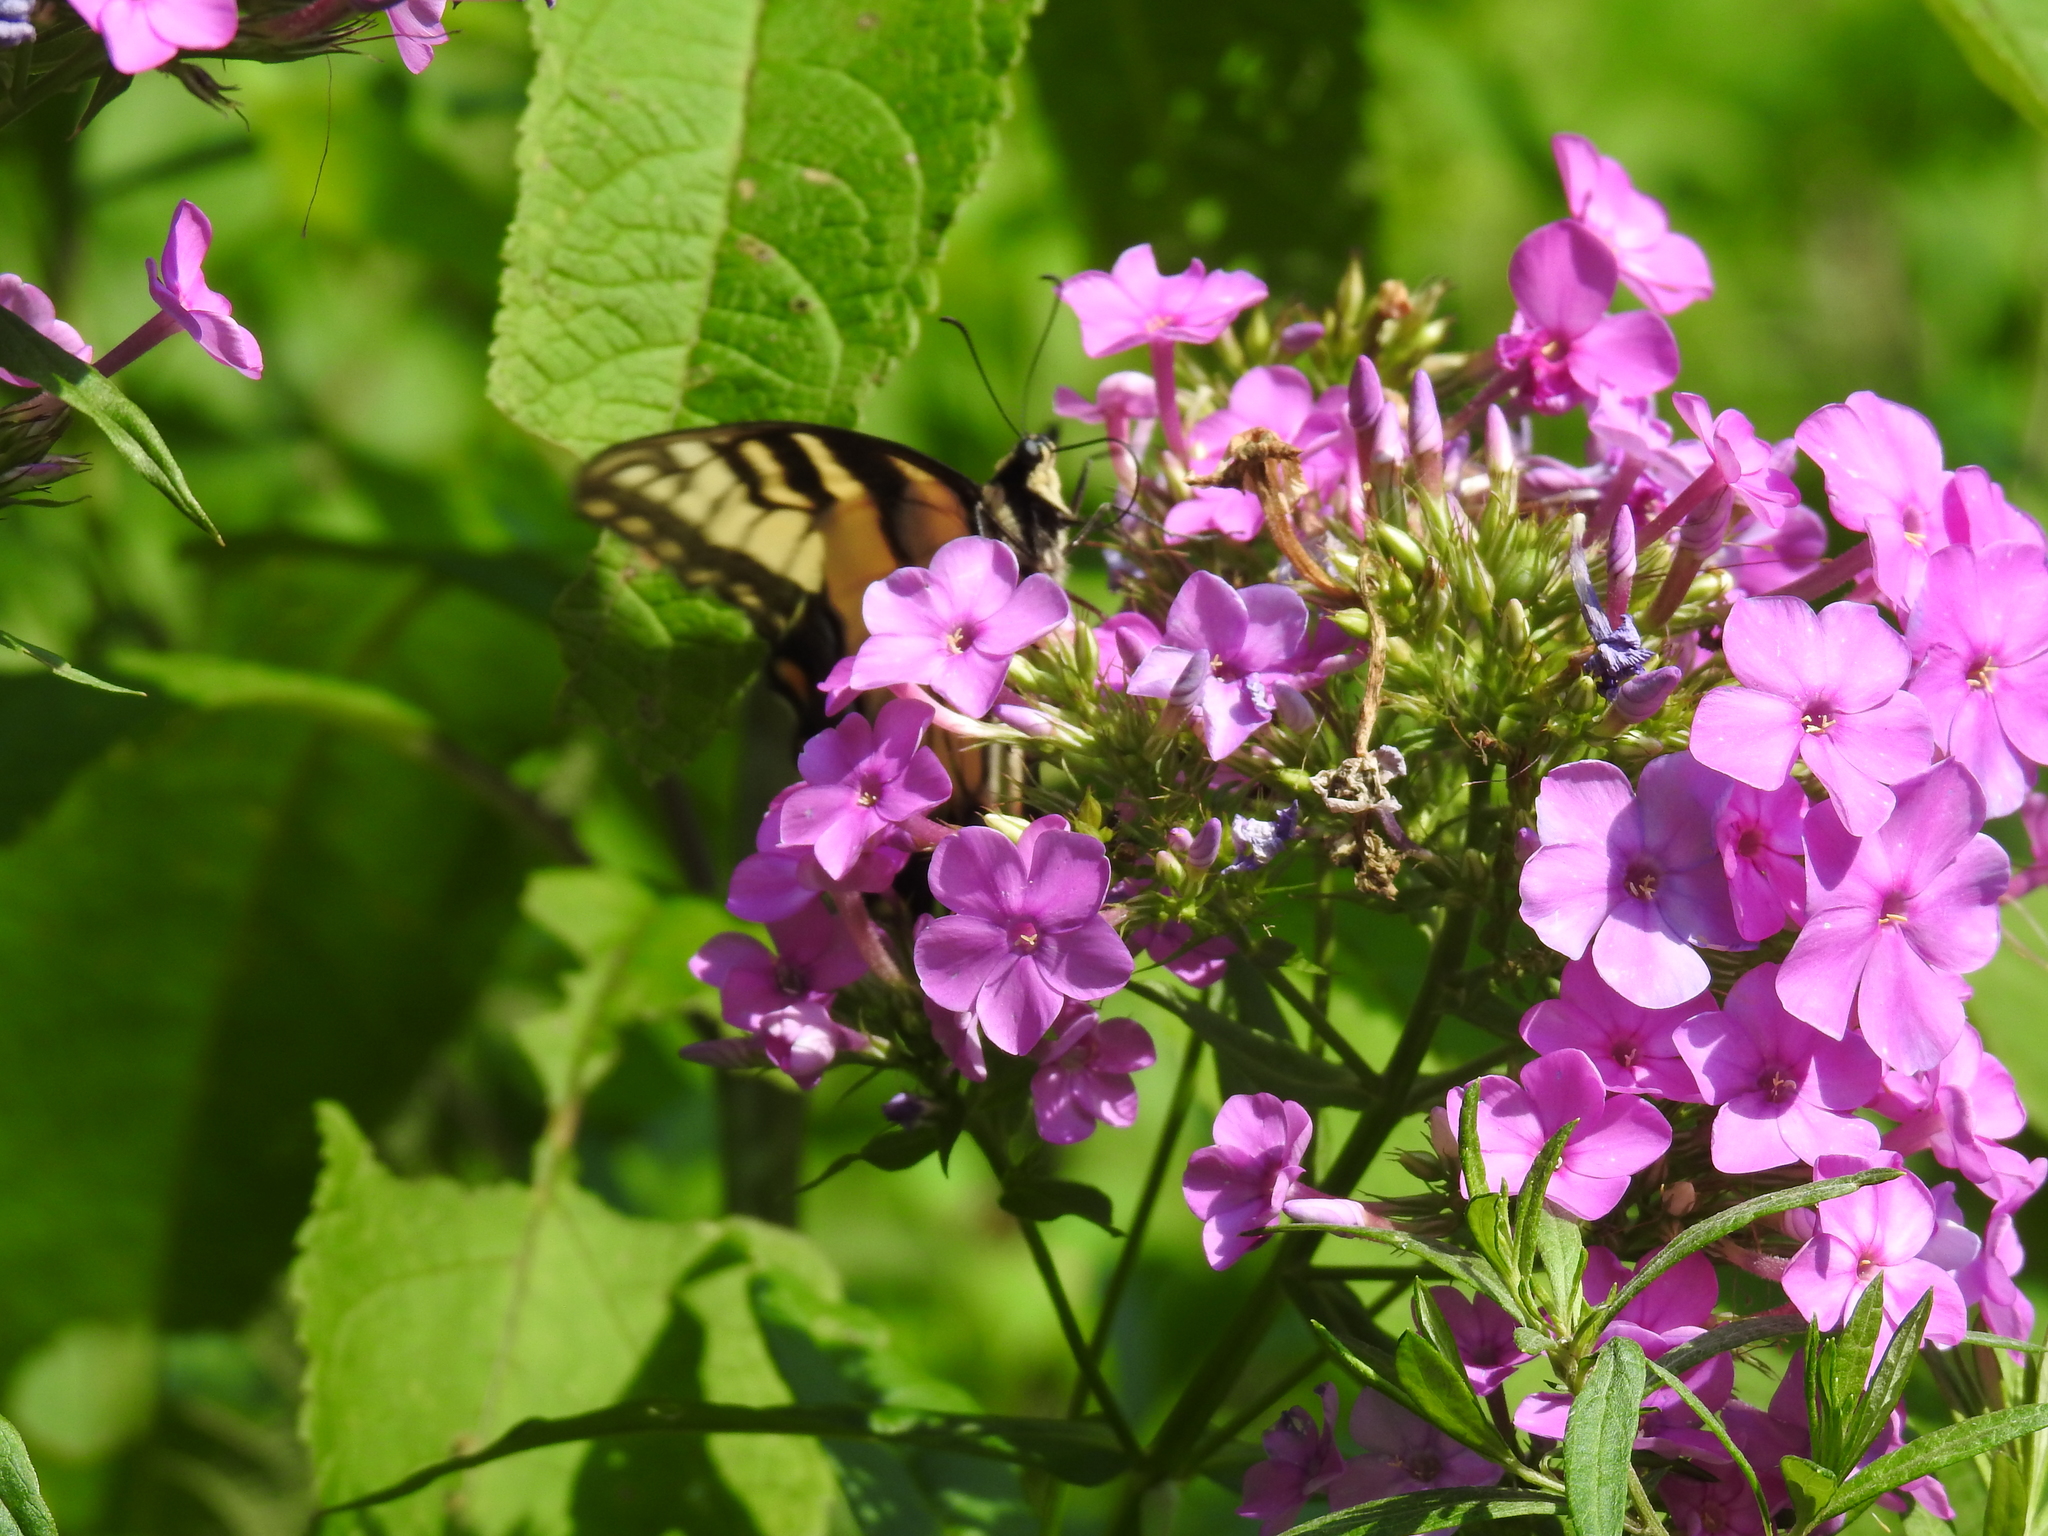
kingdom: Animalia
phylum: Arthropoda
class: Insecta
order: Lepidoptera
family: Papilionidae
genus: Papilio
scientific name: Papilio glaucus
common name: Tiger swallowtail
